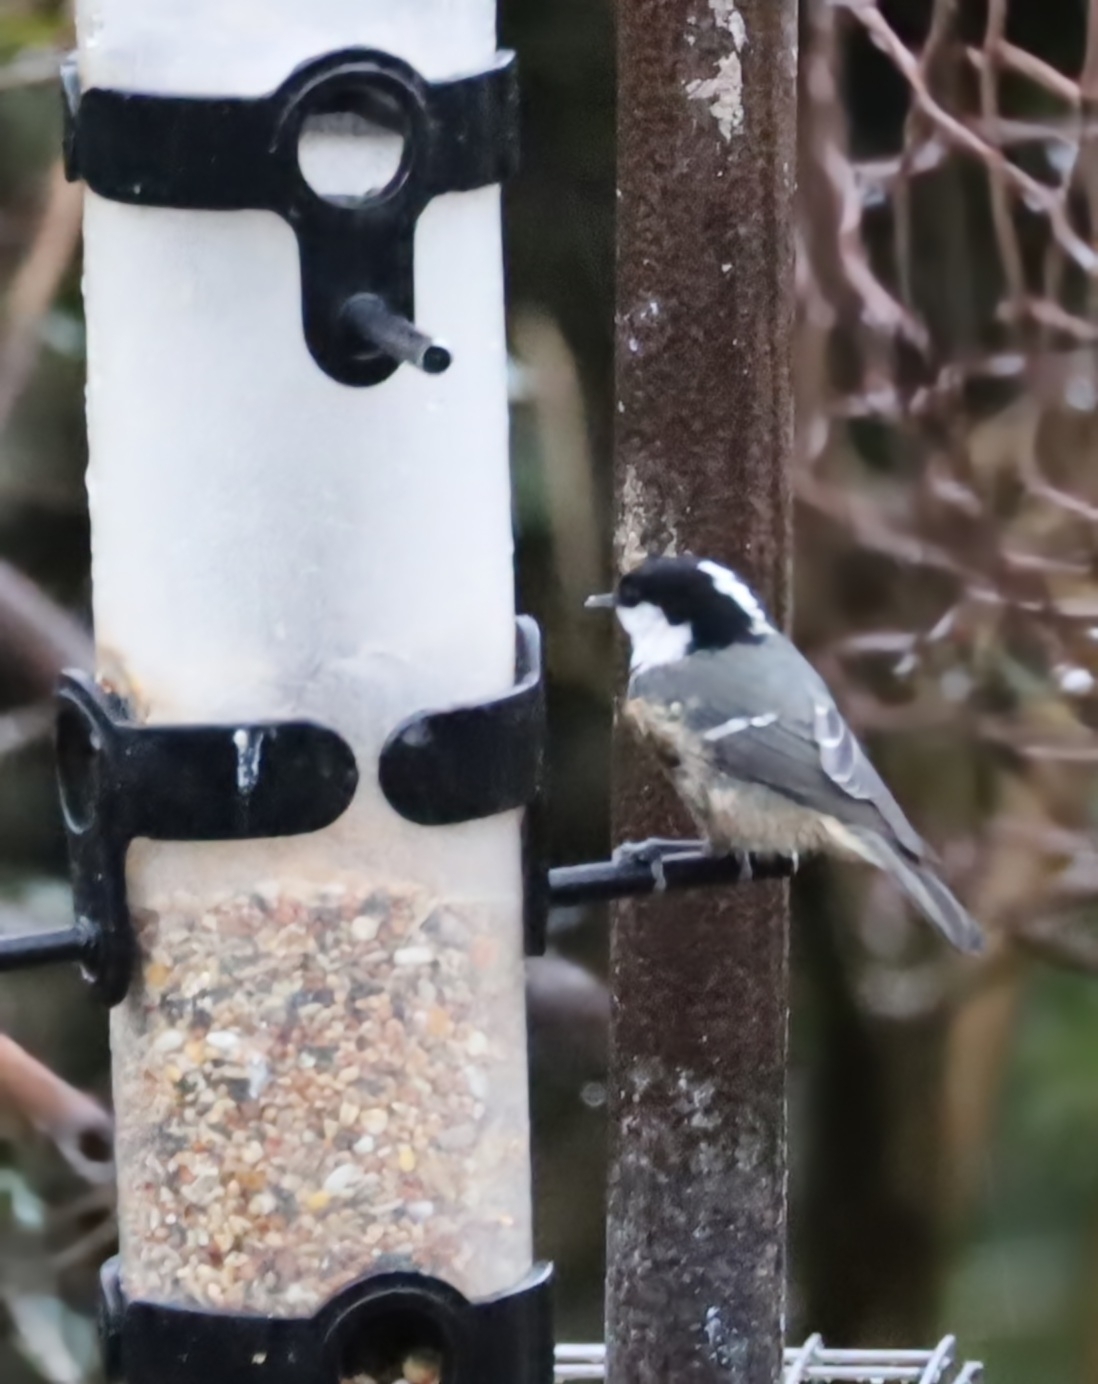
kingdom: Animalia
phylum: Chordata
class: Aves
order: Passeriformes
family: Paridae
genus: Periparus
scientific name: Periparus ater
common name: Coal tit
